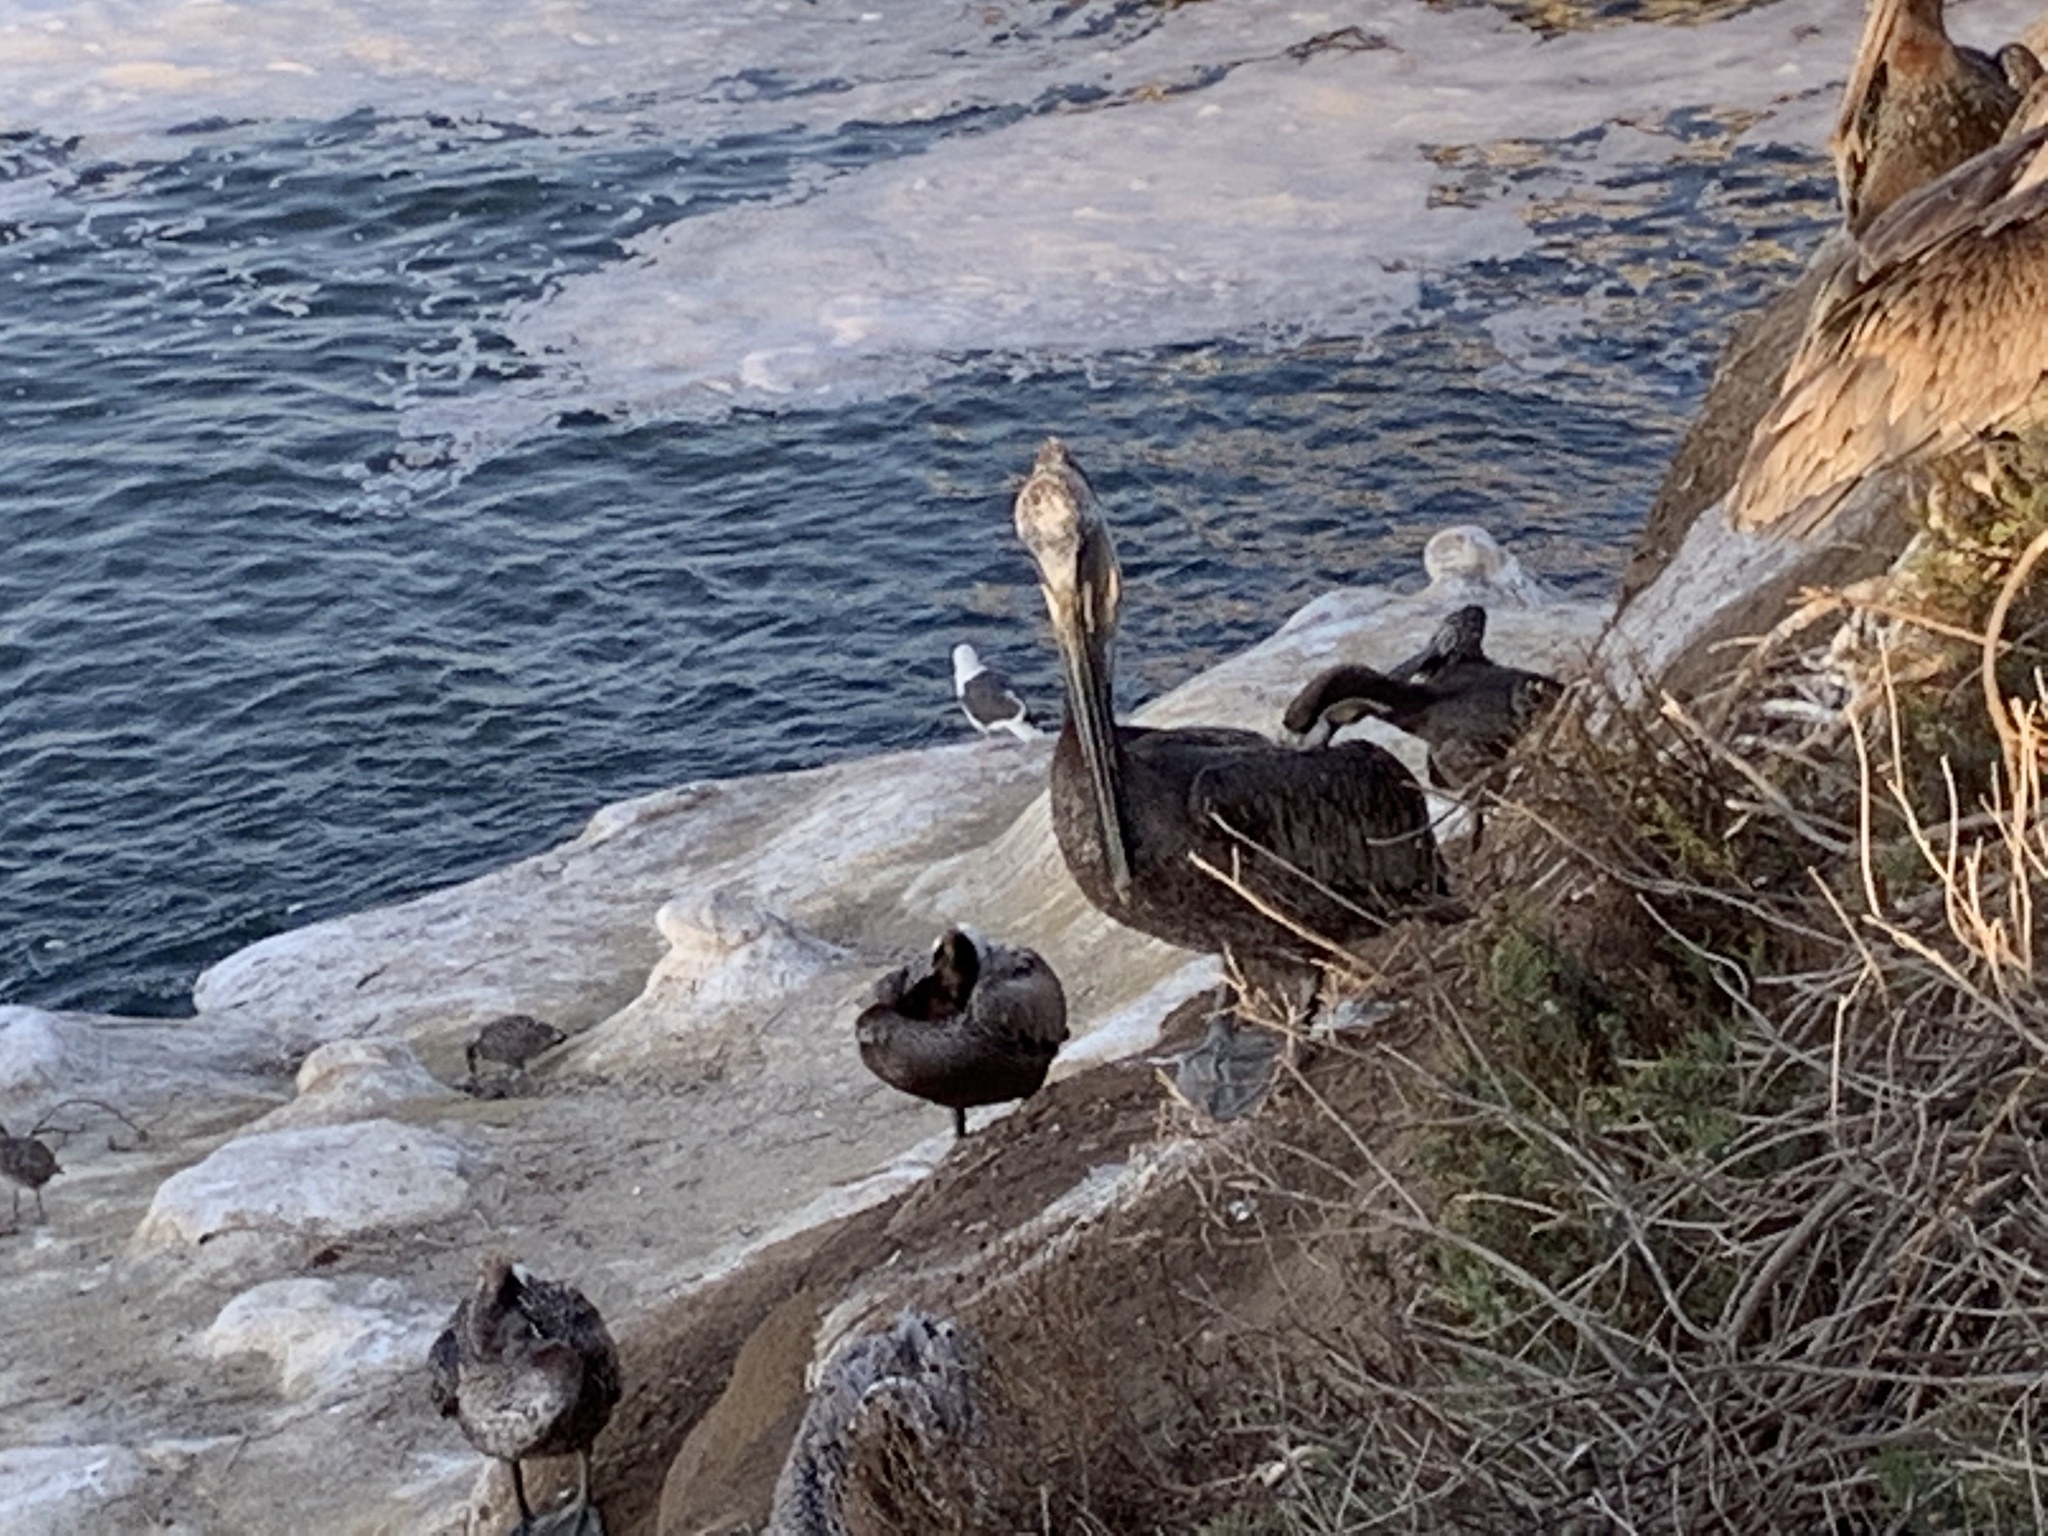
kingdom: Animalia
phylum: Chordata
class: Aves
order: Pelecaniformes
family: Pelecanidae
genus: Pelecanus
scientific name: Pelecanus occidentalis
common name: Brown pelican
